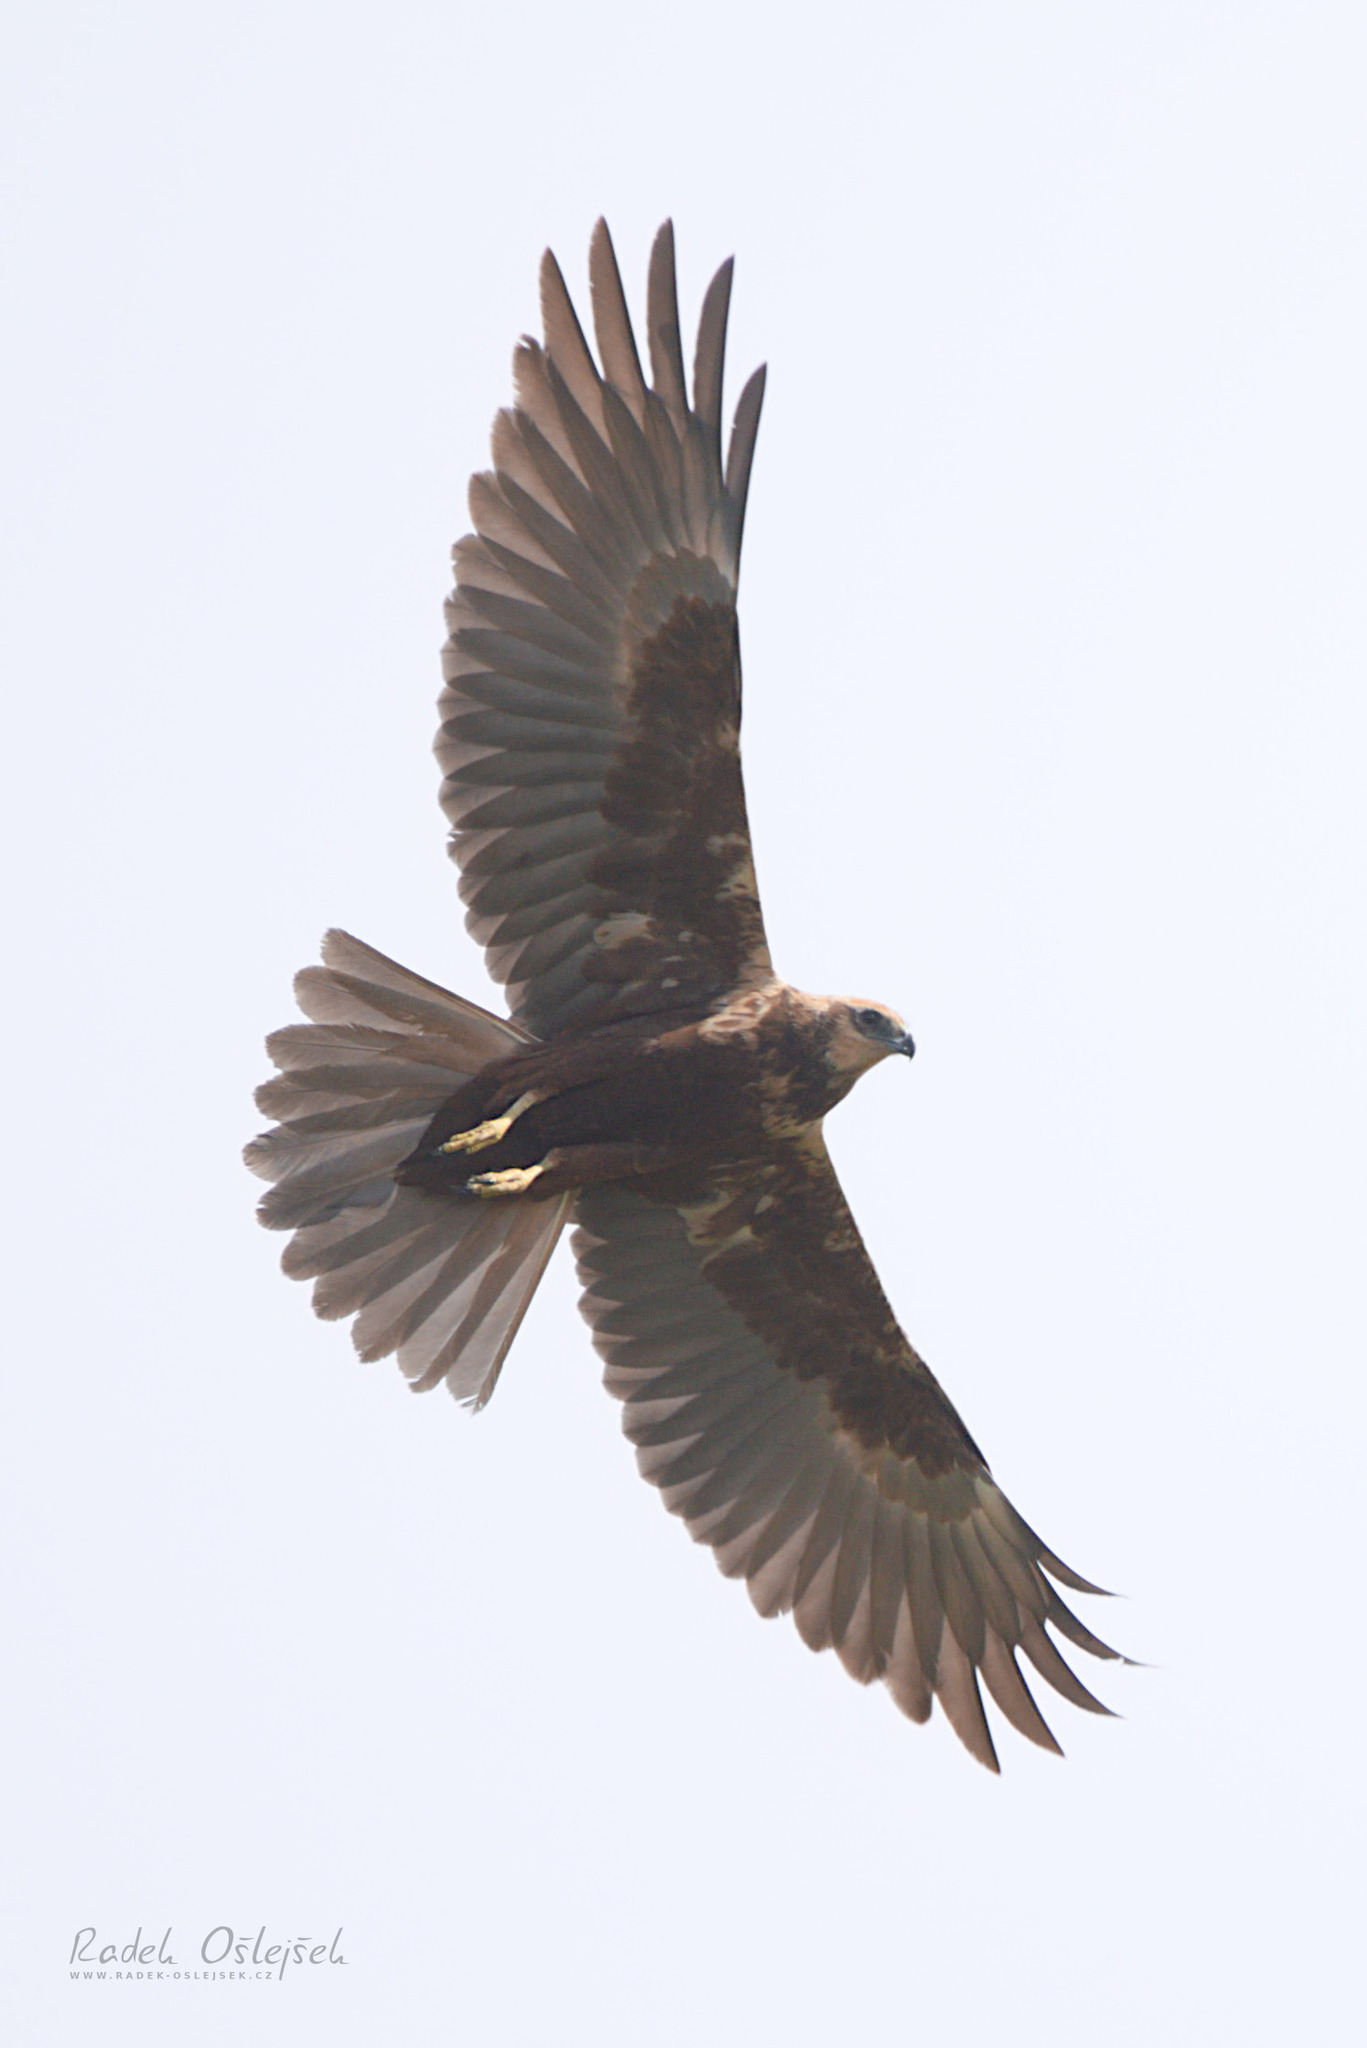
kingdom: Animalia
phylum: Chordata
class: Aves
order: Accipitriformes
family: Accipitridae
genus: Circus
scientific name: Circus aeruginosus
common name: Western marsh harrier
